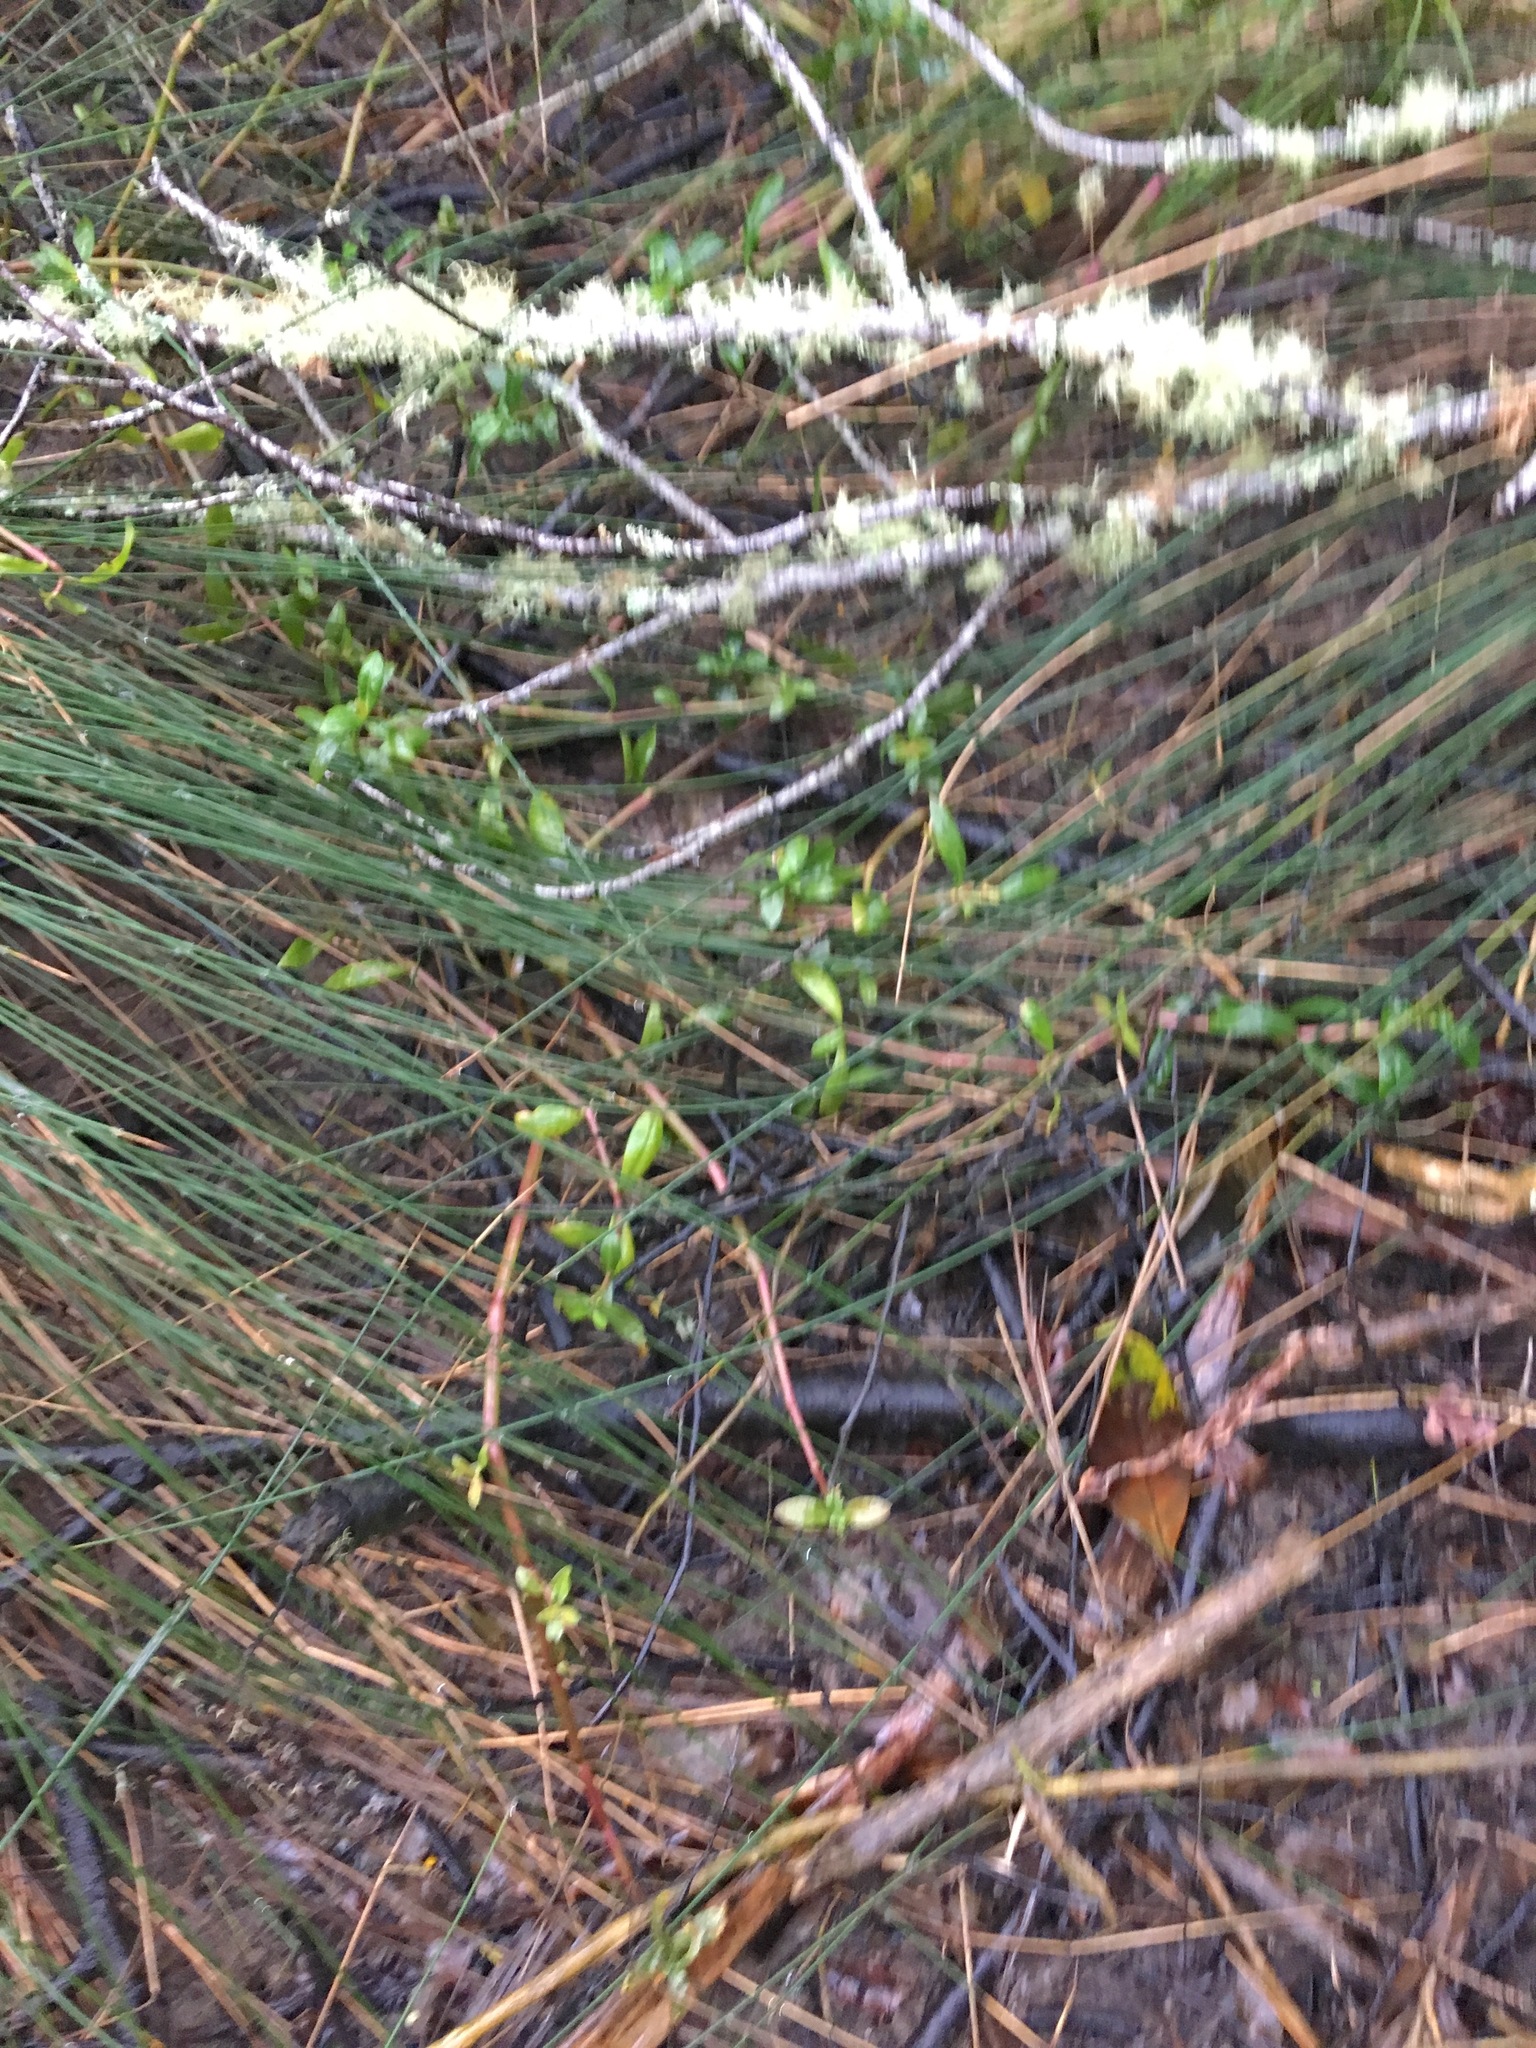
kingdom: Plantae
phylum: Tracheophyta
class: Magnoliopsida
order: Caryophyllales
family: Amaranthaceae
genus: Alternanthera
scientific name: Alternanthera philoxeroides
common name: Alligatorweed
